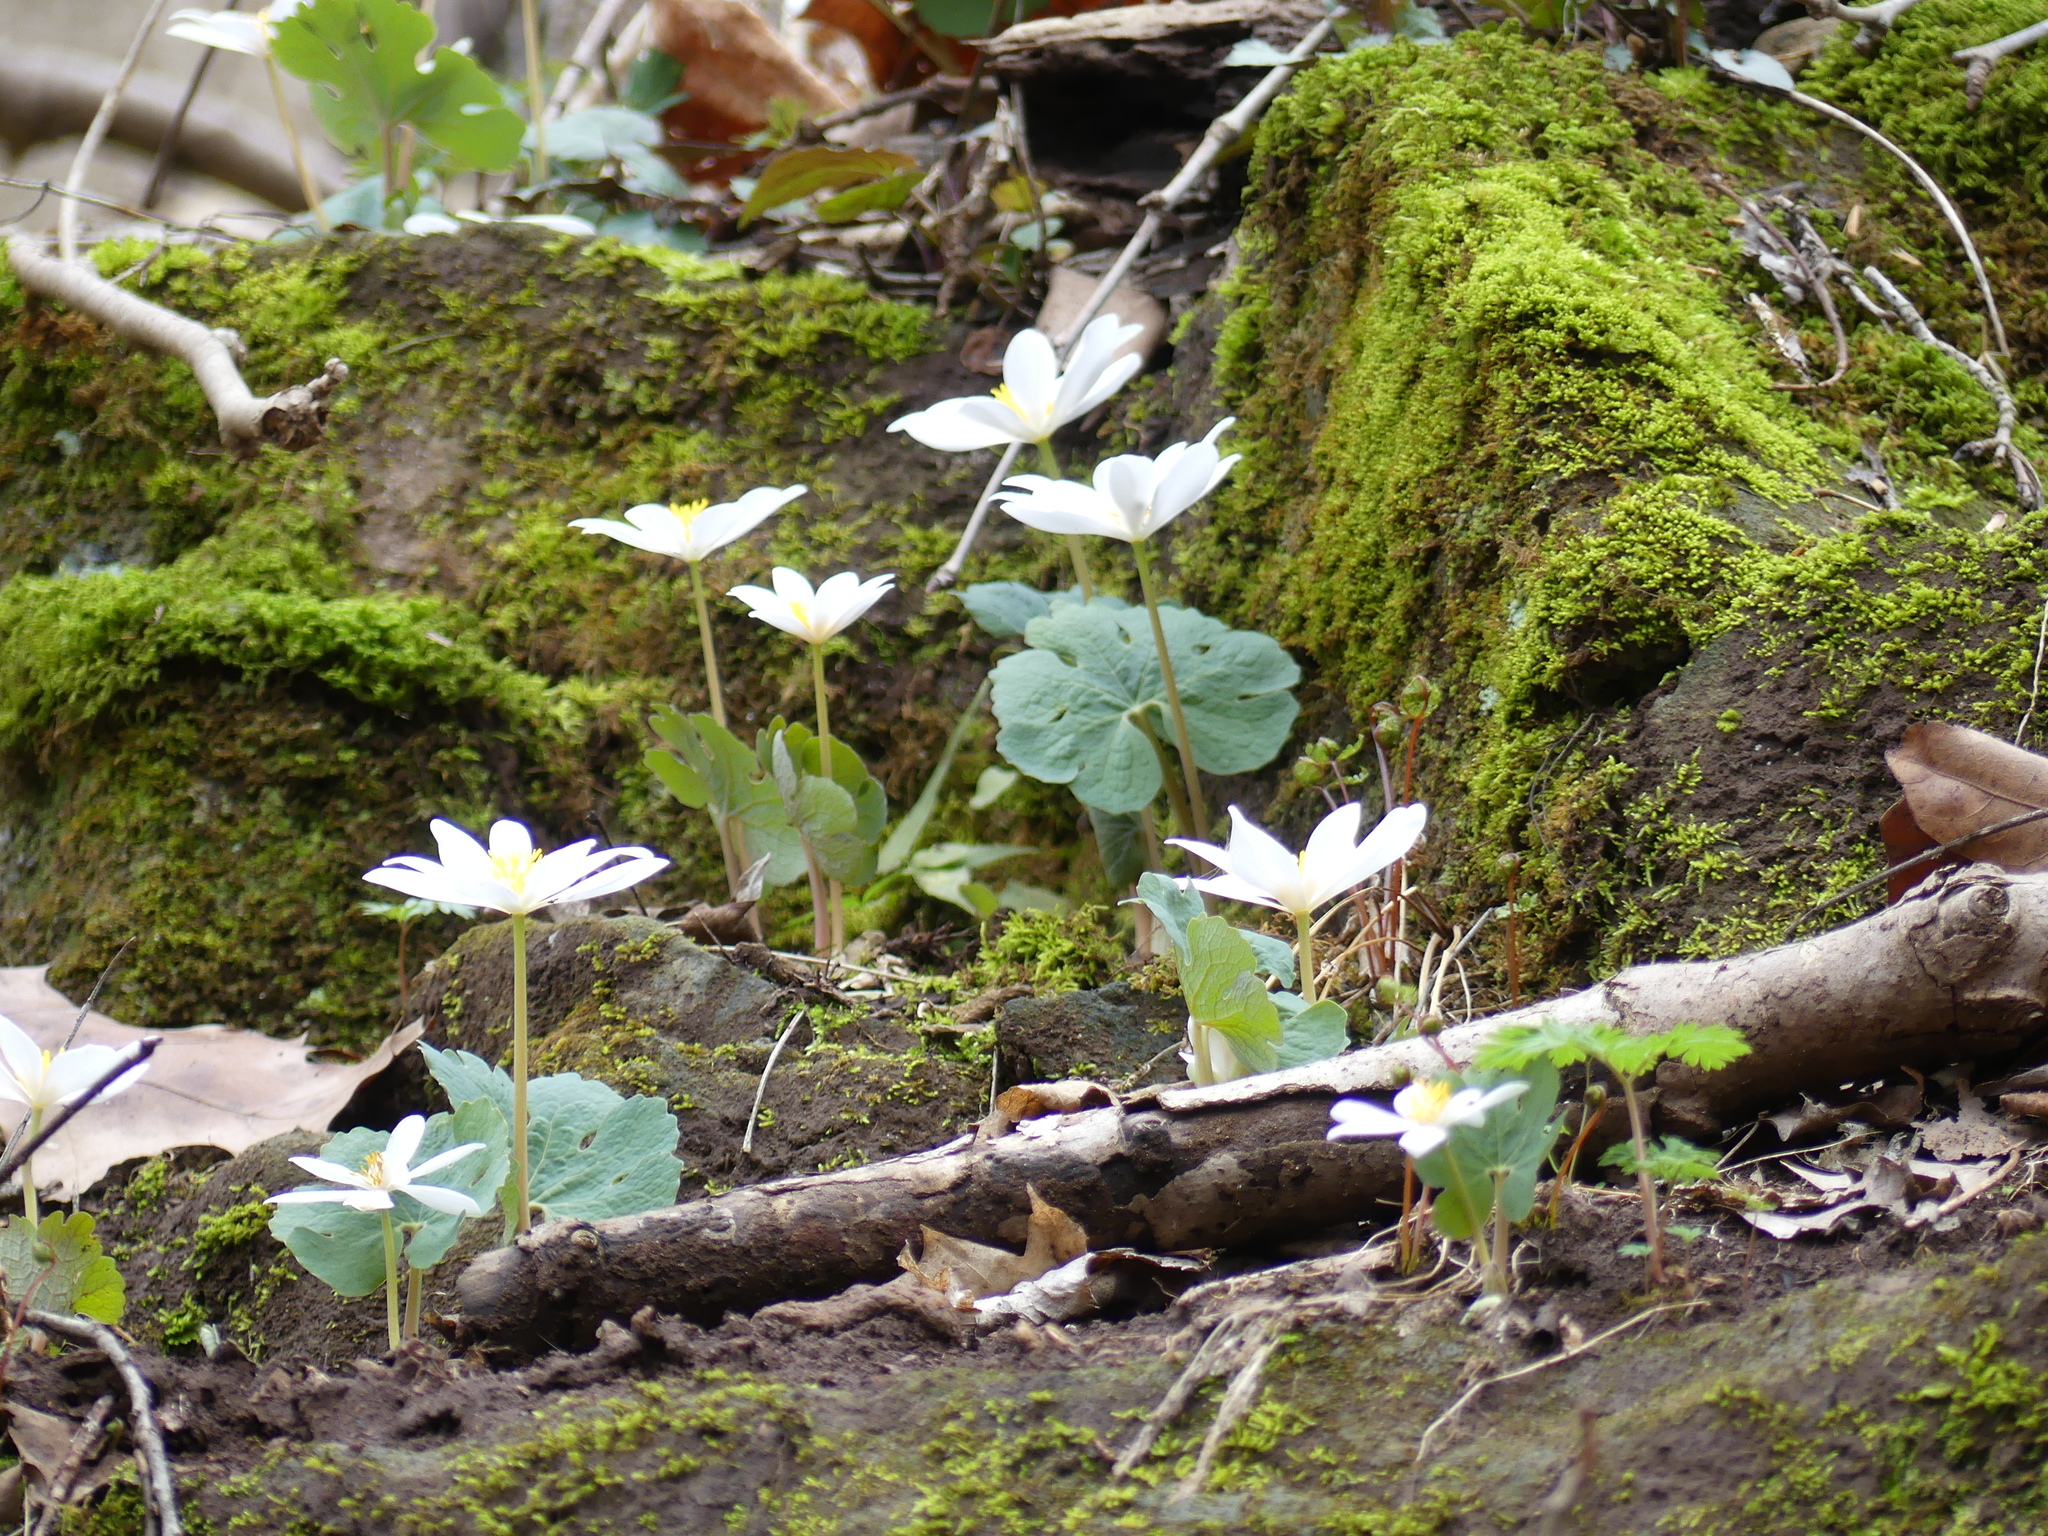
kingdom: Plantae
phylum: Tracheophyta
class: Magnoliopsida
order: Ranunculales
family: Papaveraceae
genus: Sanguinaria
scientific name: Sanguinaria canadensis
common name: Bloodroot
